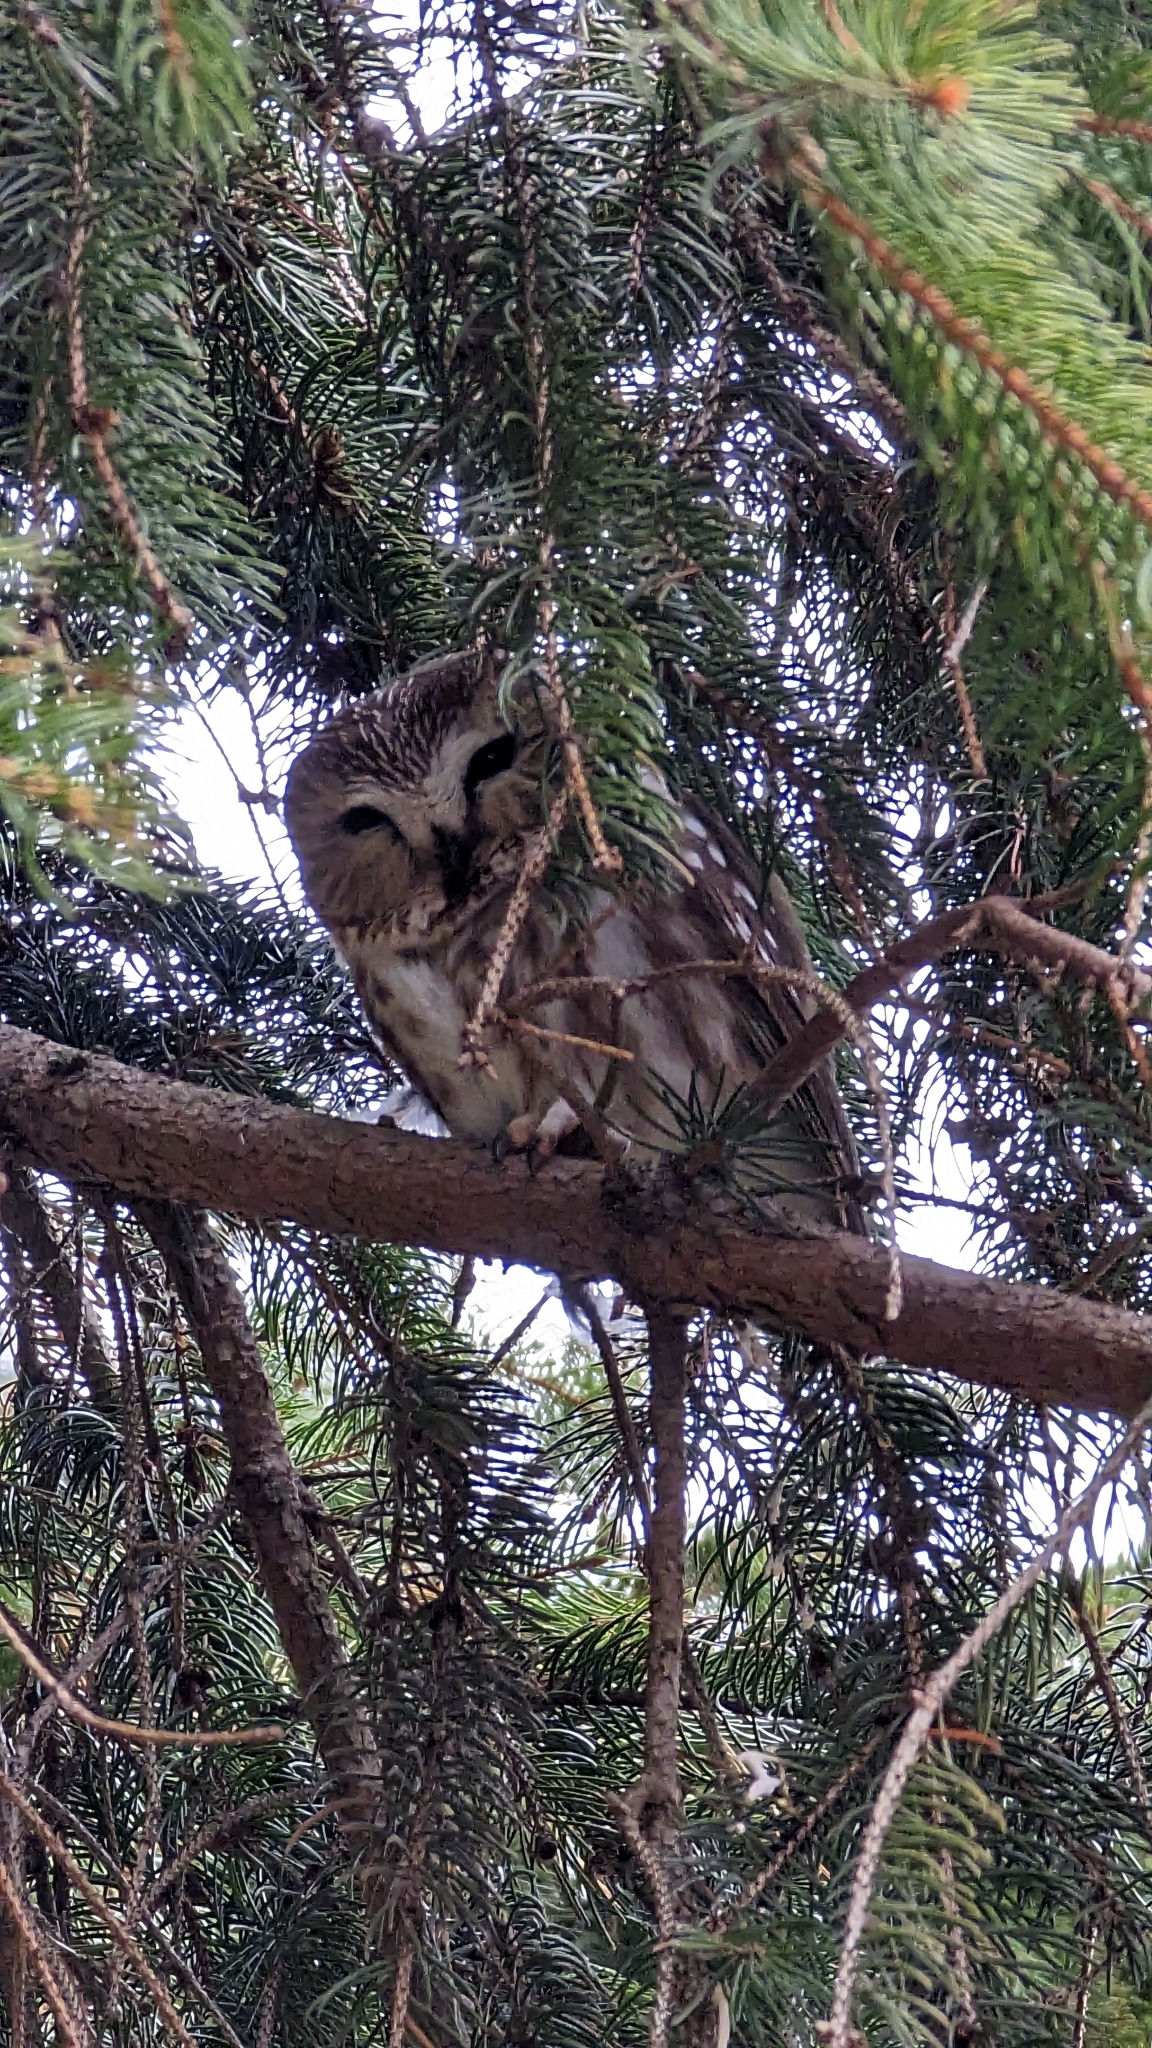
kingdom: Animalia
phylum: Chordata
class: Aves
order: Strigiformes
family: Strigidae
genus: Aegolius
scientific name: Aegolius acadicus
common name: Northern saw-whet owl
